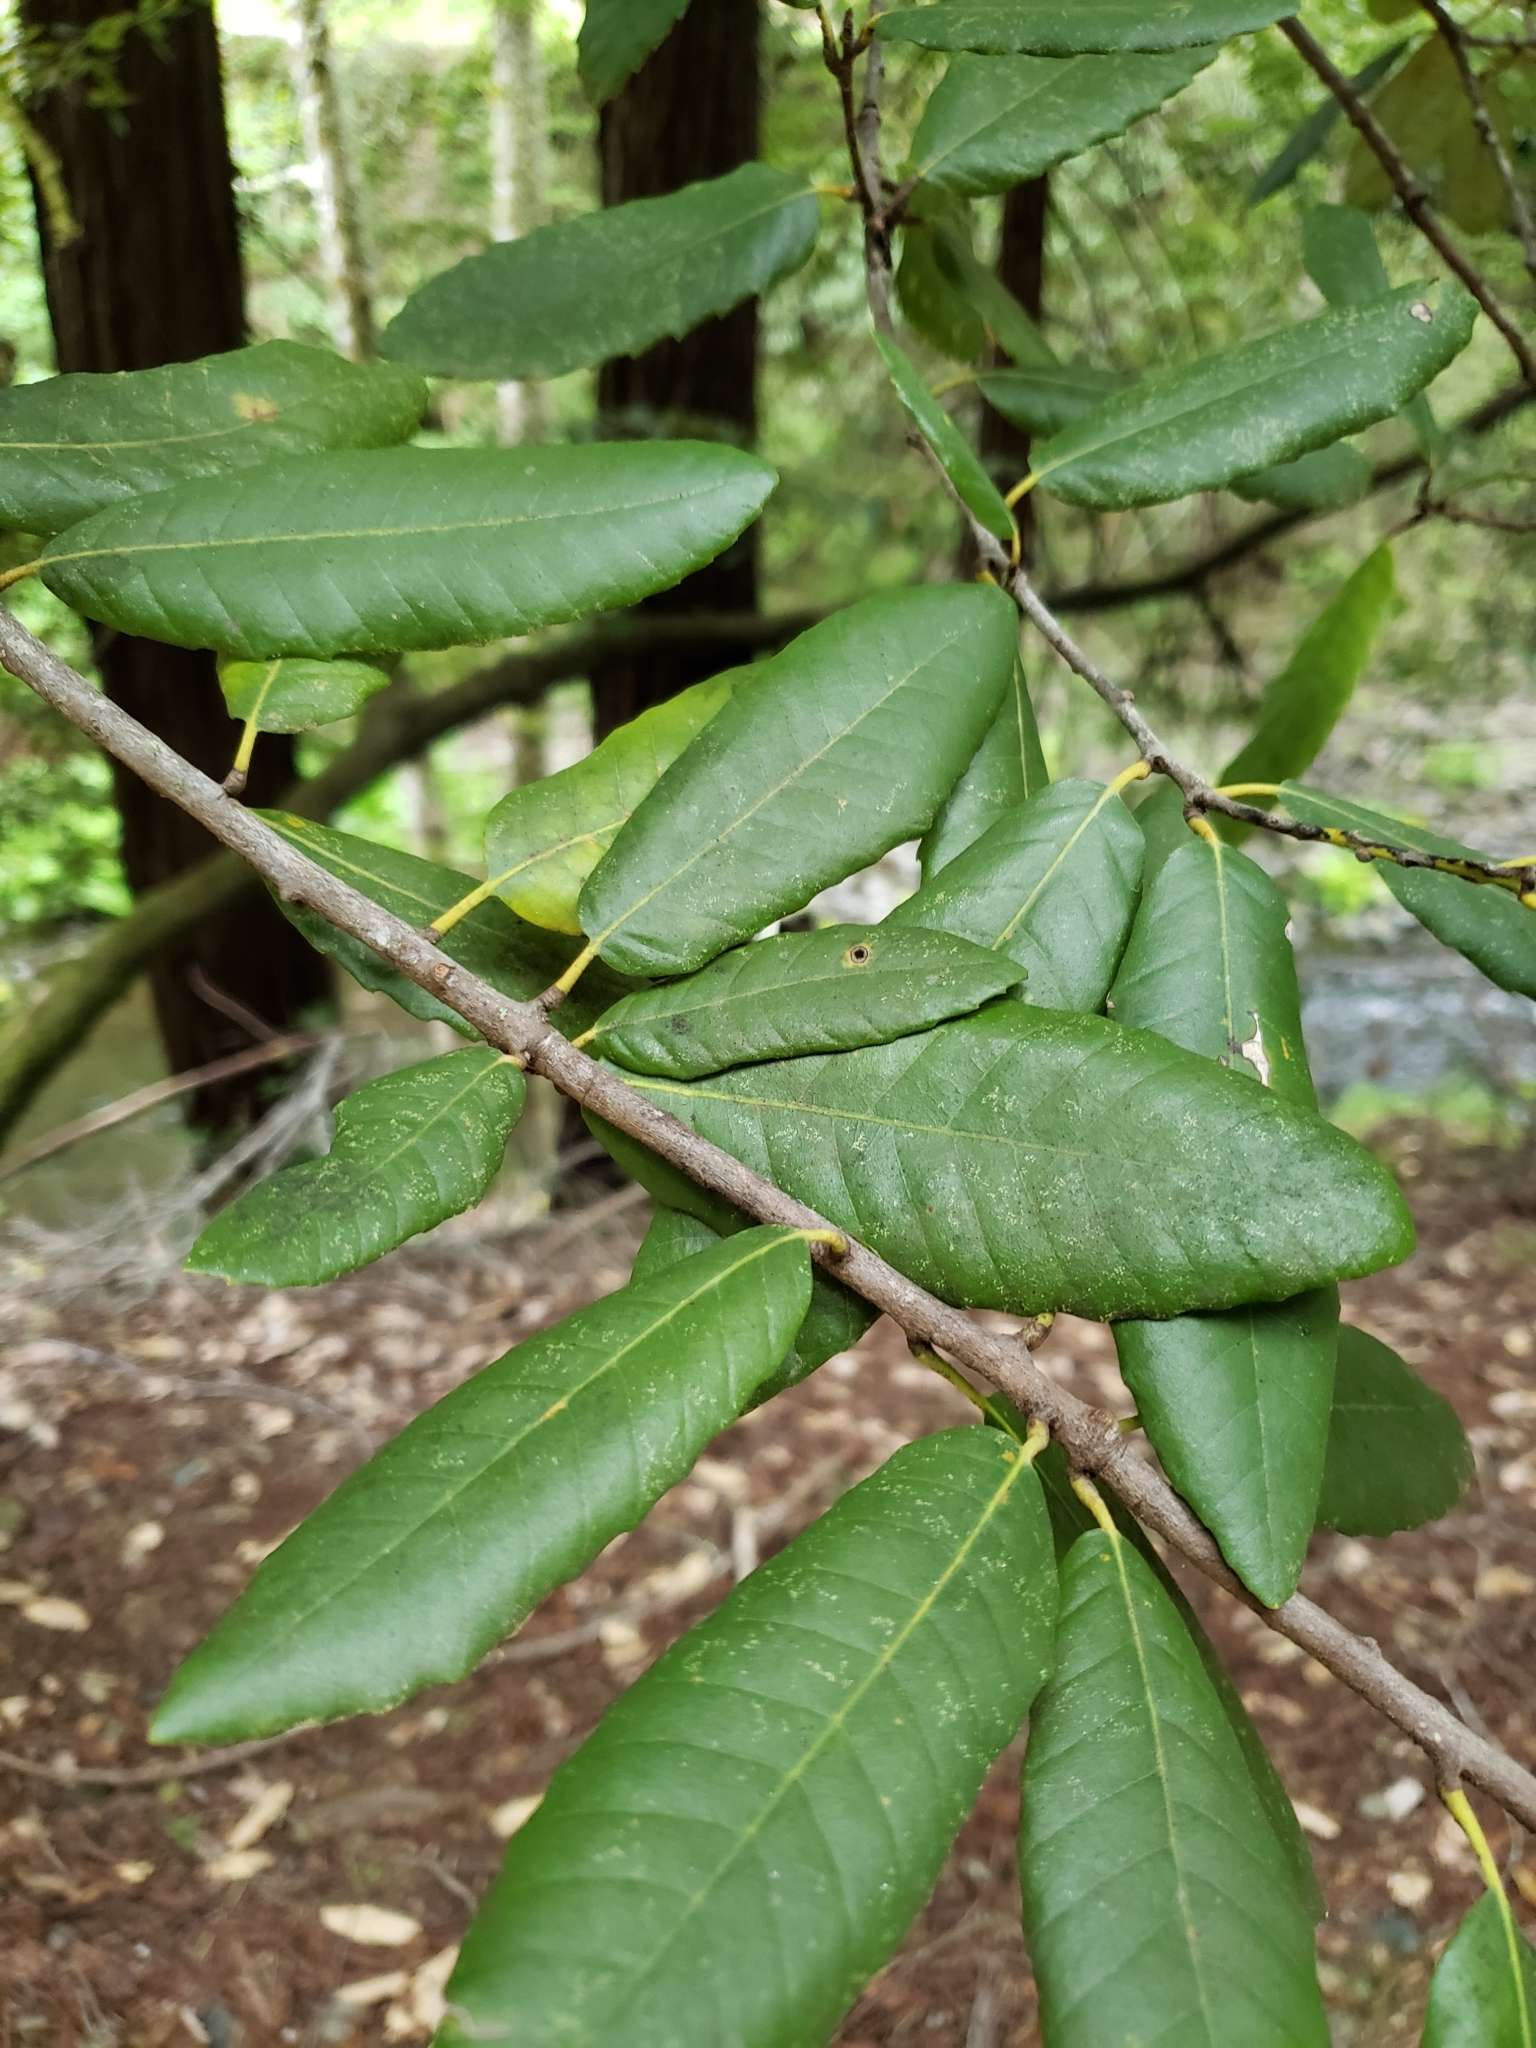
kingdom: Plantae
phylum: Tracheophyta
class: Magnoliopsida
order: Fagales
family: Fagaceae
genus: Notholithocarpus
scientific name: Notholithocarpus densiflorus
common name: Tan bark oak
